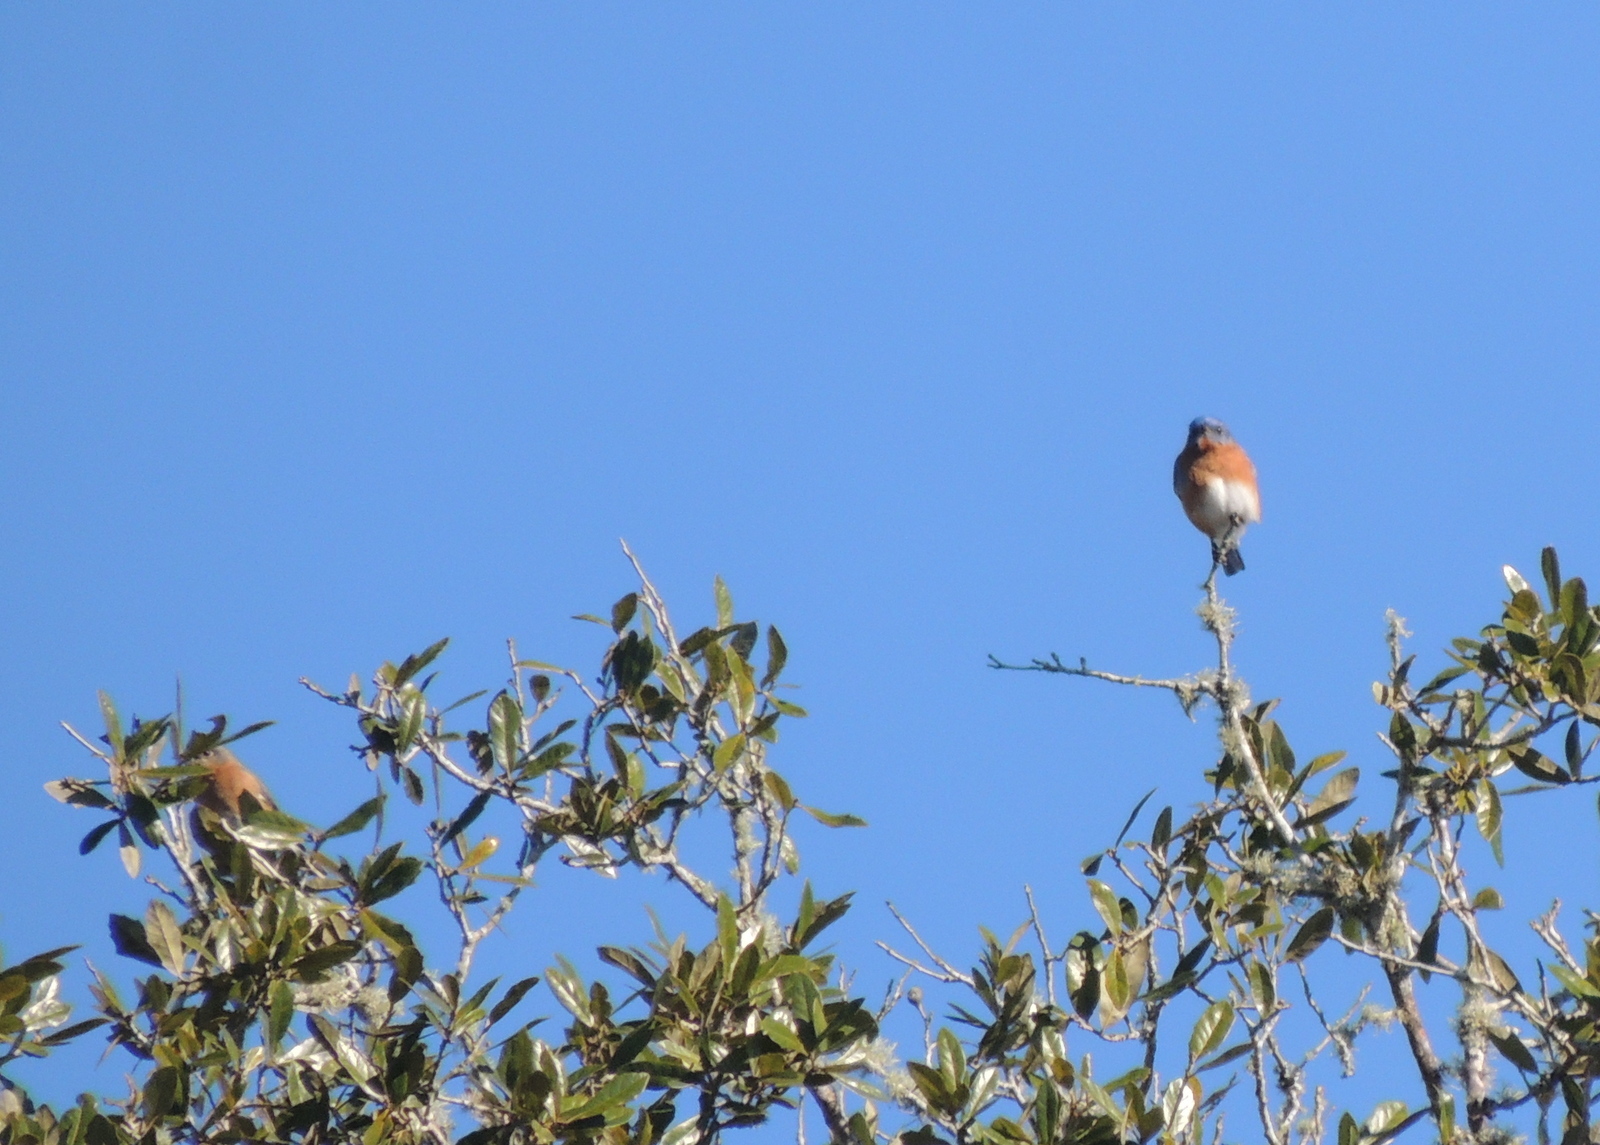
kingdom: Animalia
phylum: Chordata
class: Aves
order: Passeriformes
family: Turdidae
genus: Sialia
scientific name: Sialia sialis
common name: Eastern bluebird
